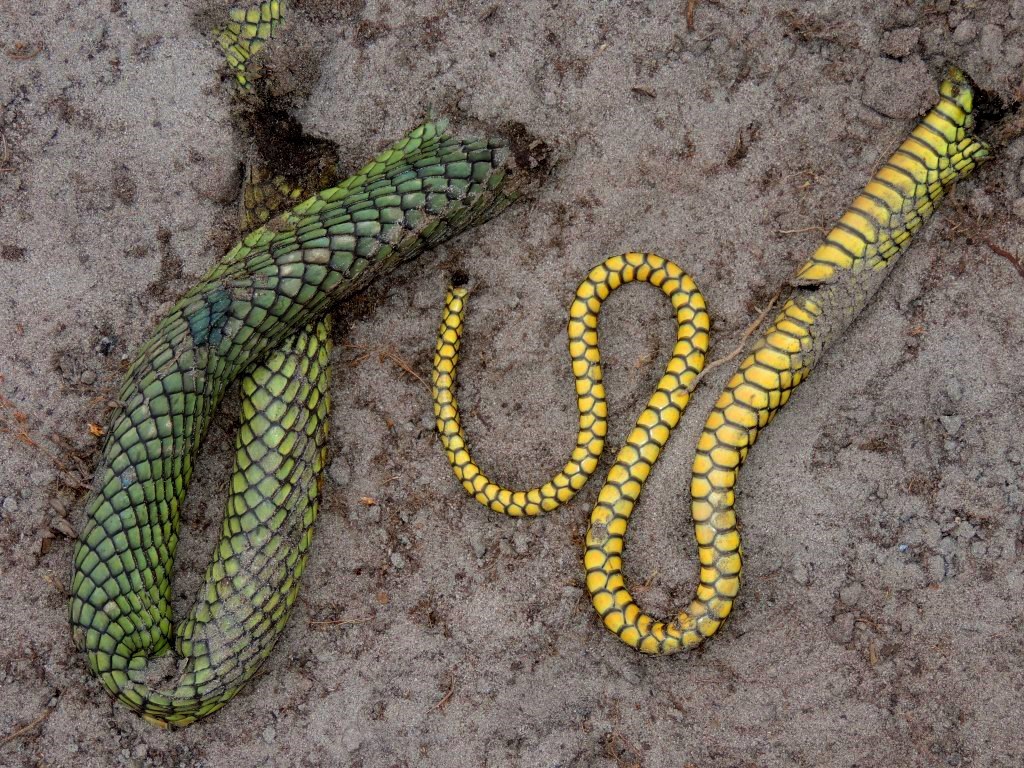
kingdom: Animalia
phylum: Chordata
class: Squamata
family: Elapidae
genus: Dendroaspis
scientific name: Dendroaspis jamesoni
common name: Jameson's mamba
